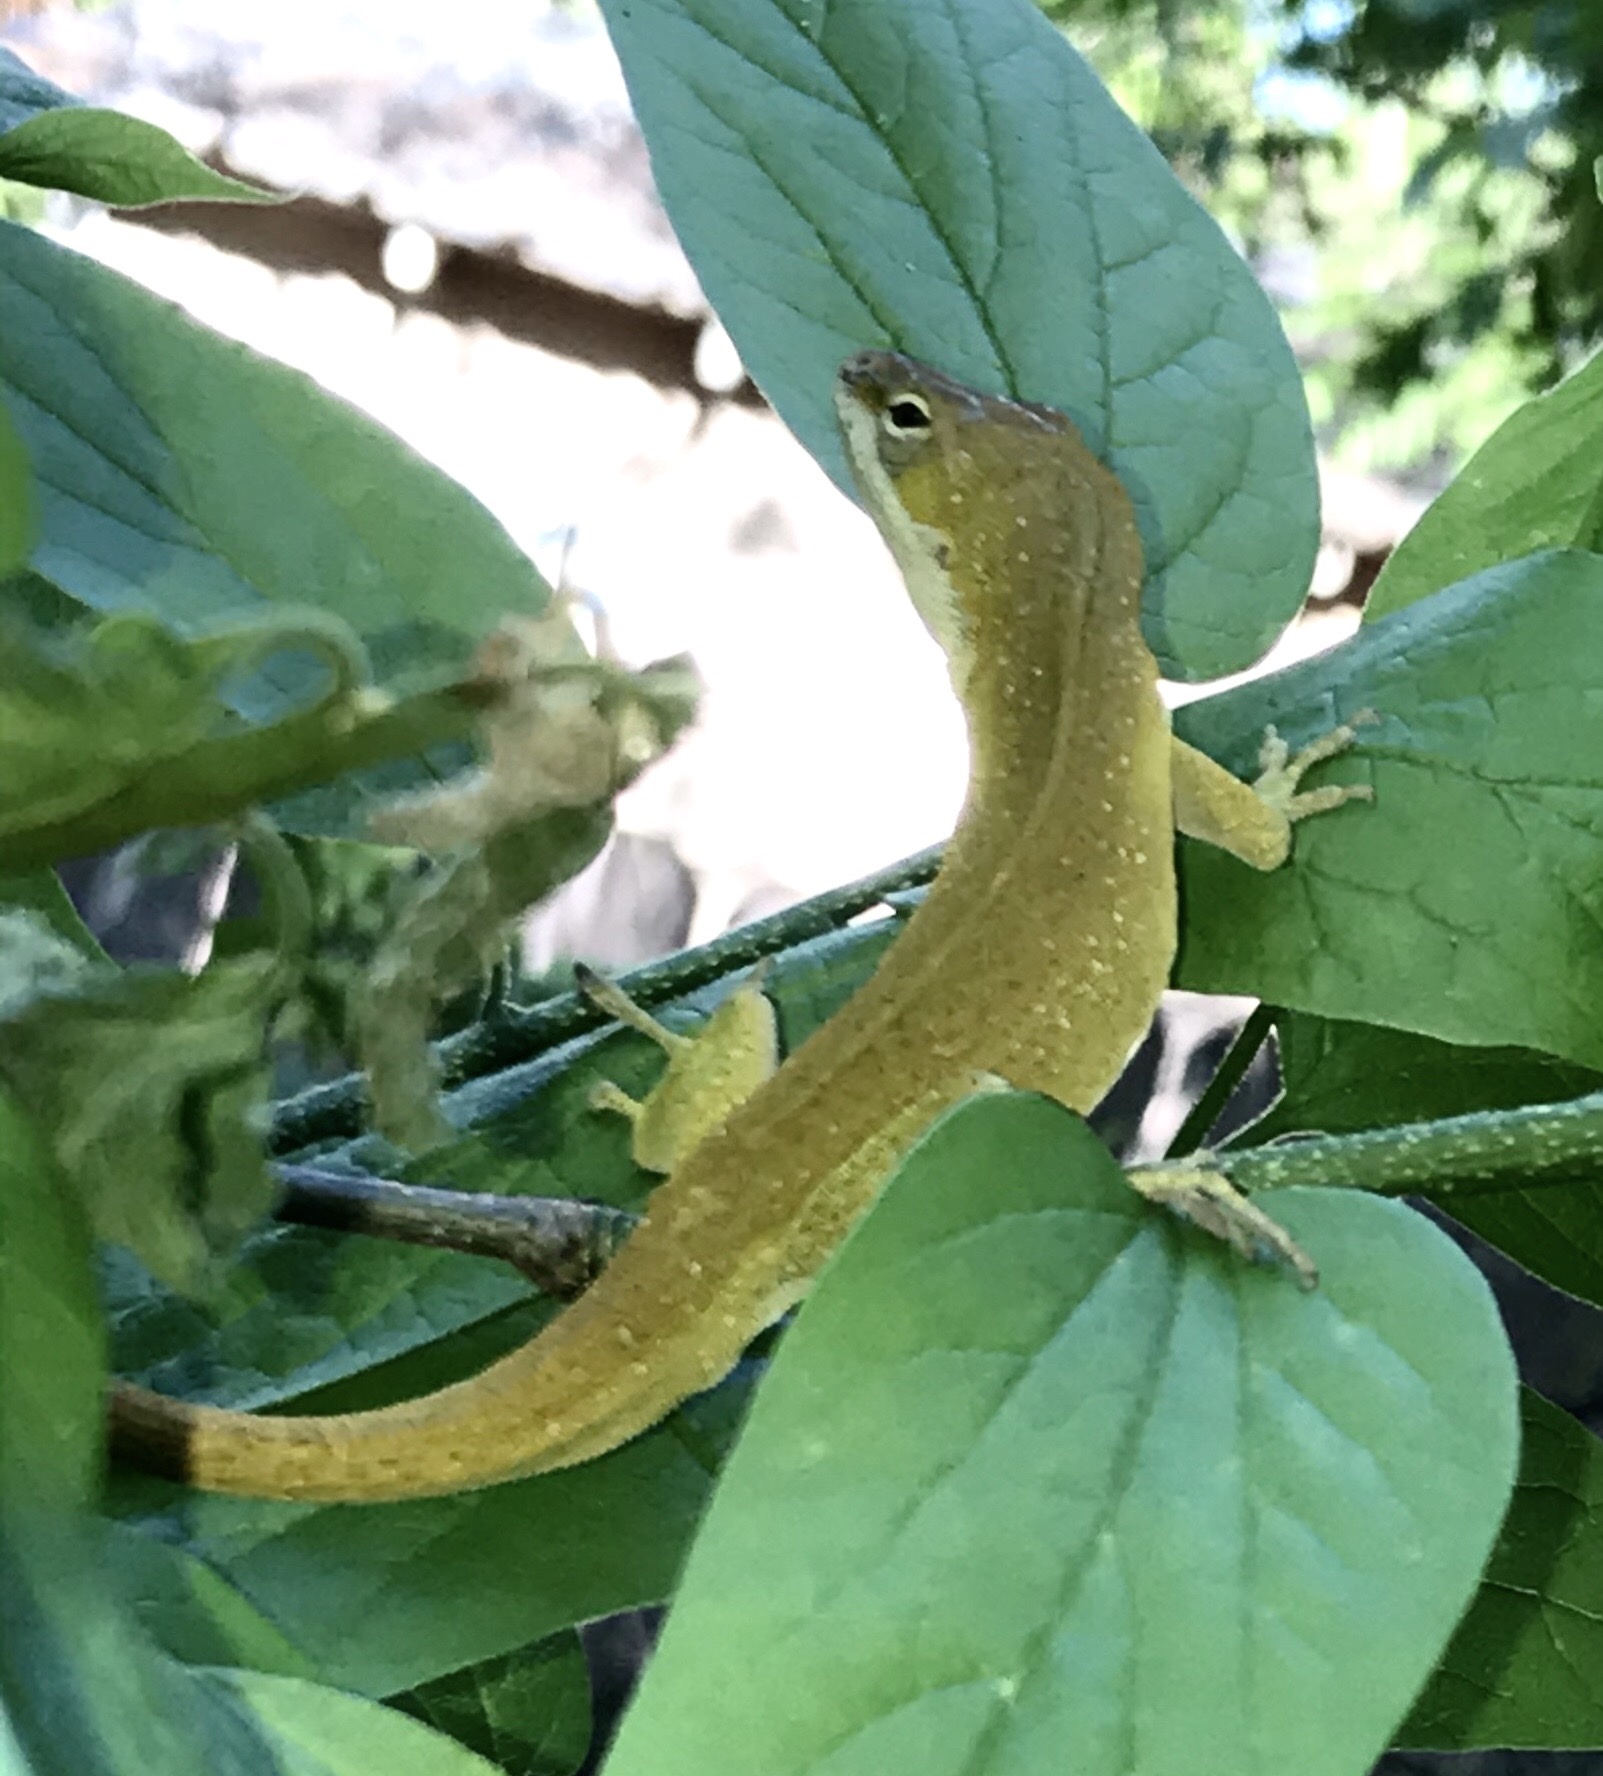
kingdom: Animalia
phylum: Chordata
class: Squamata
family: Dactyloidae
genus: Anolis
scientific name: Anolis carolinensis
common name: Green anole
